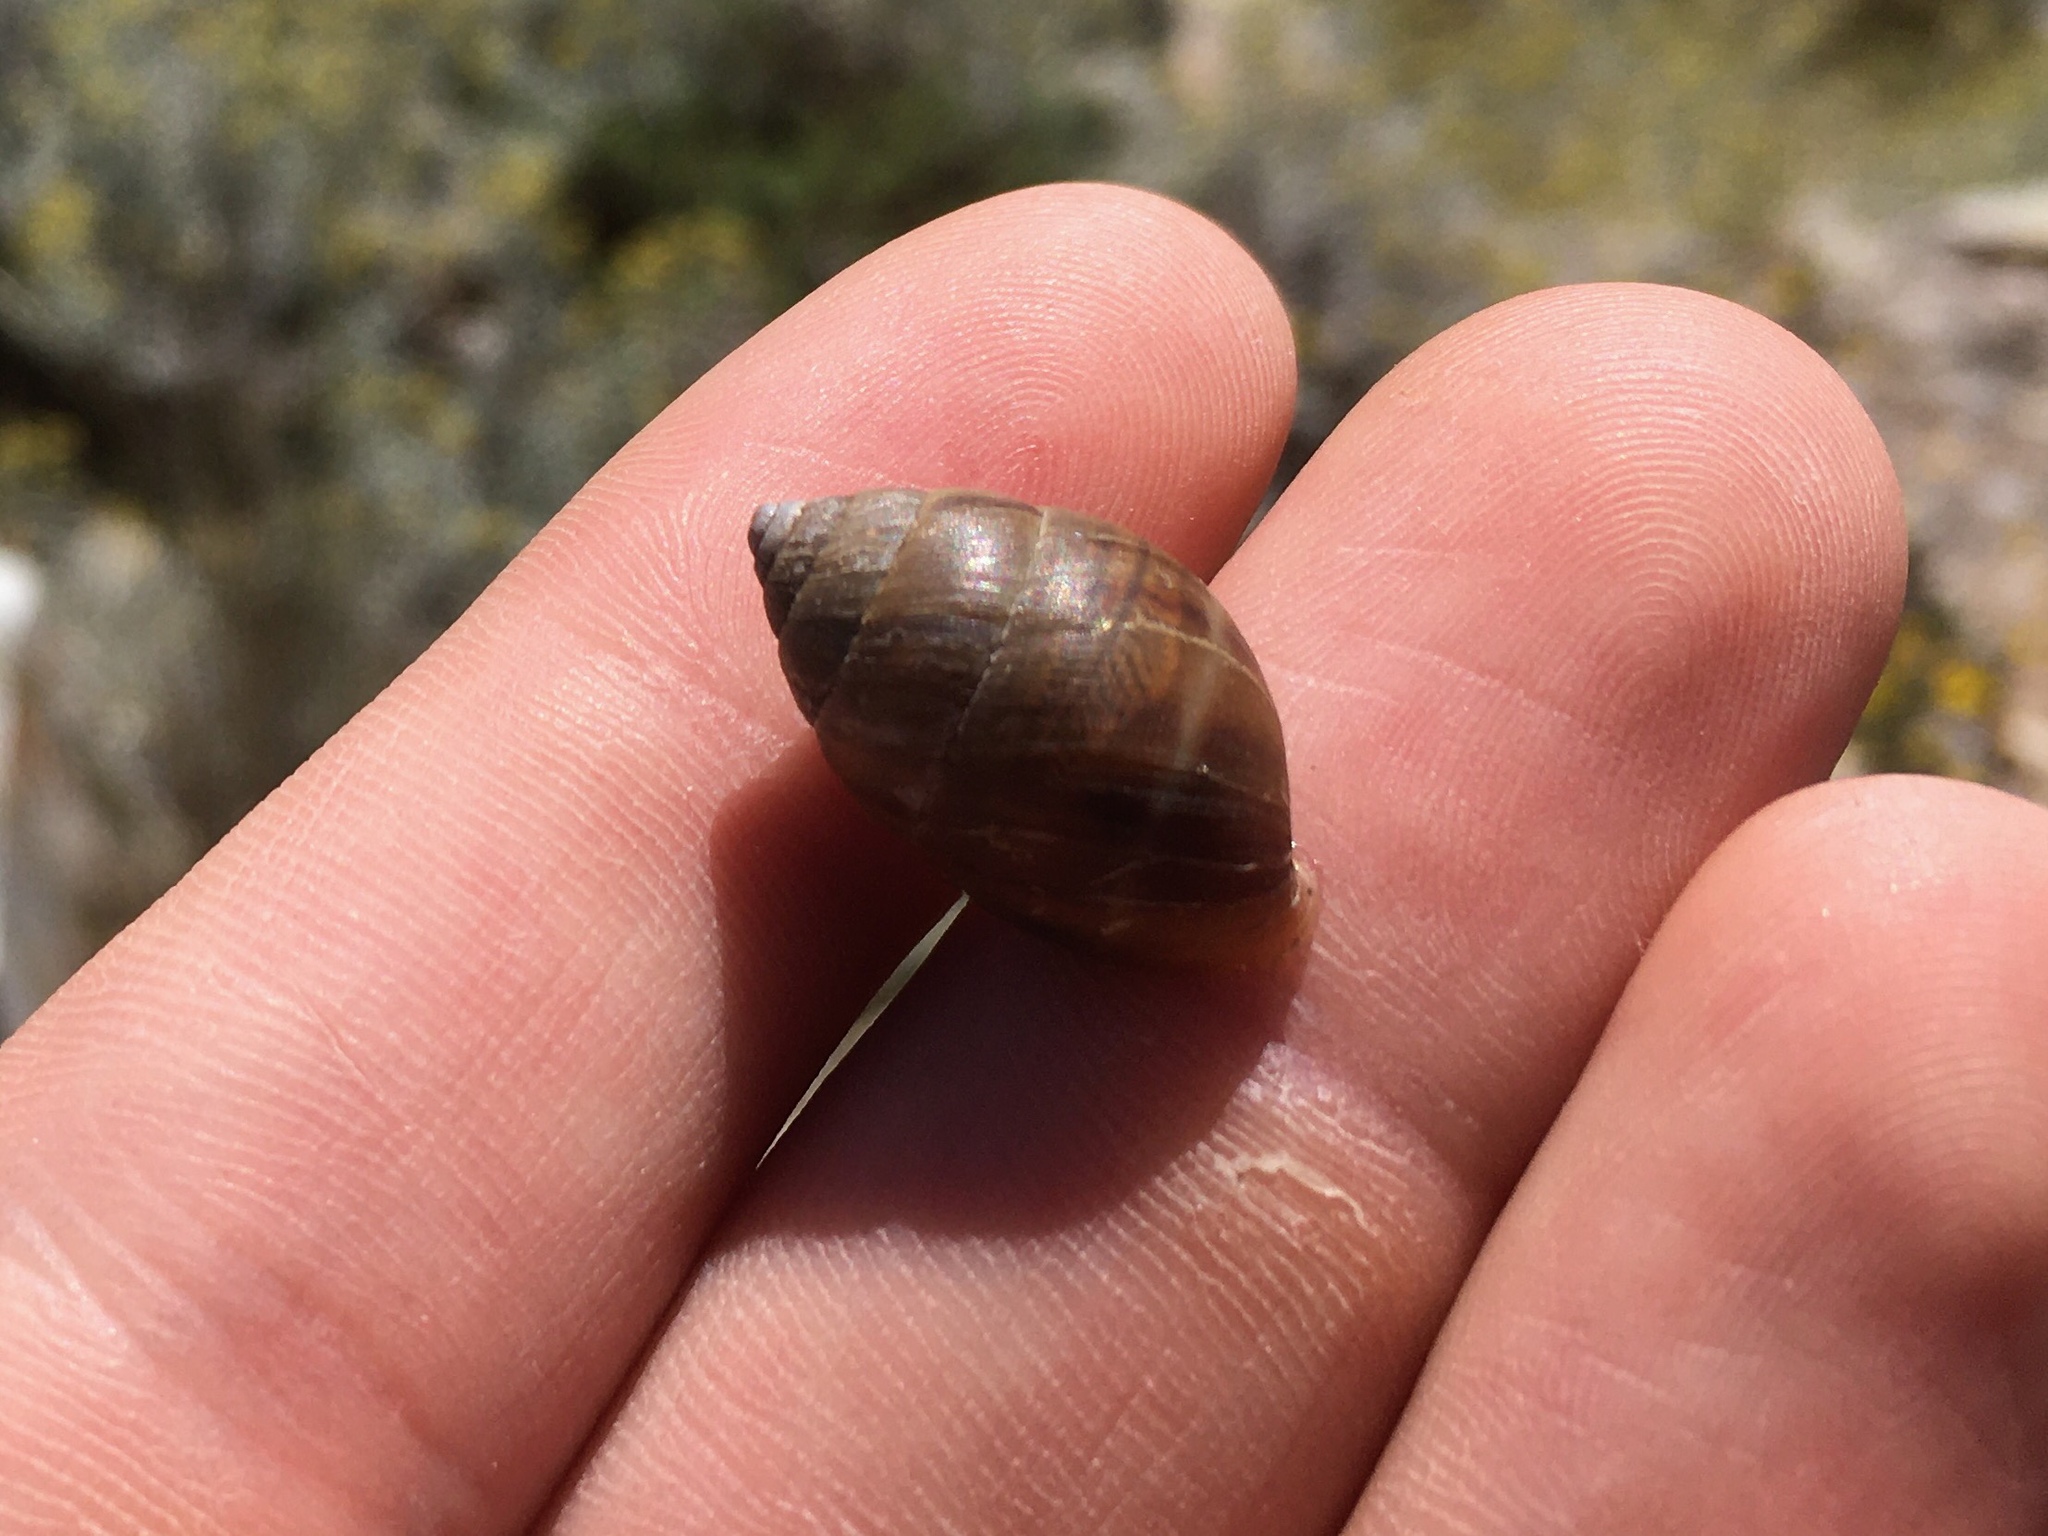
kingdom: Animalia
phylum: Mollusca
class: Gastropoda
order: Stylommatophora
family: Odontostomidae
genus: Plagiodontes
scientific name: Plagiodontes patagonicus
